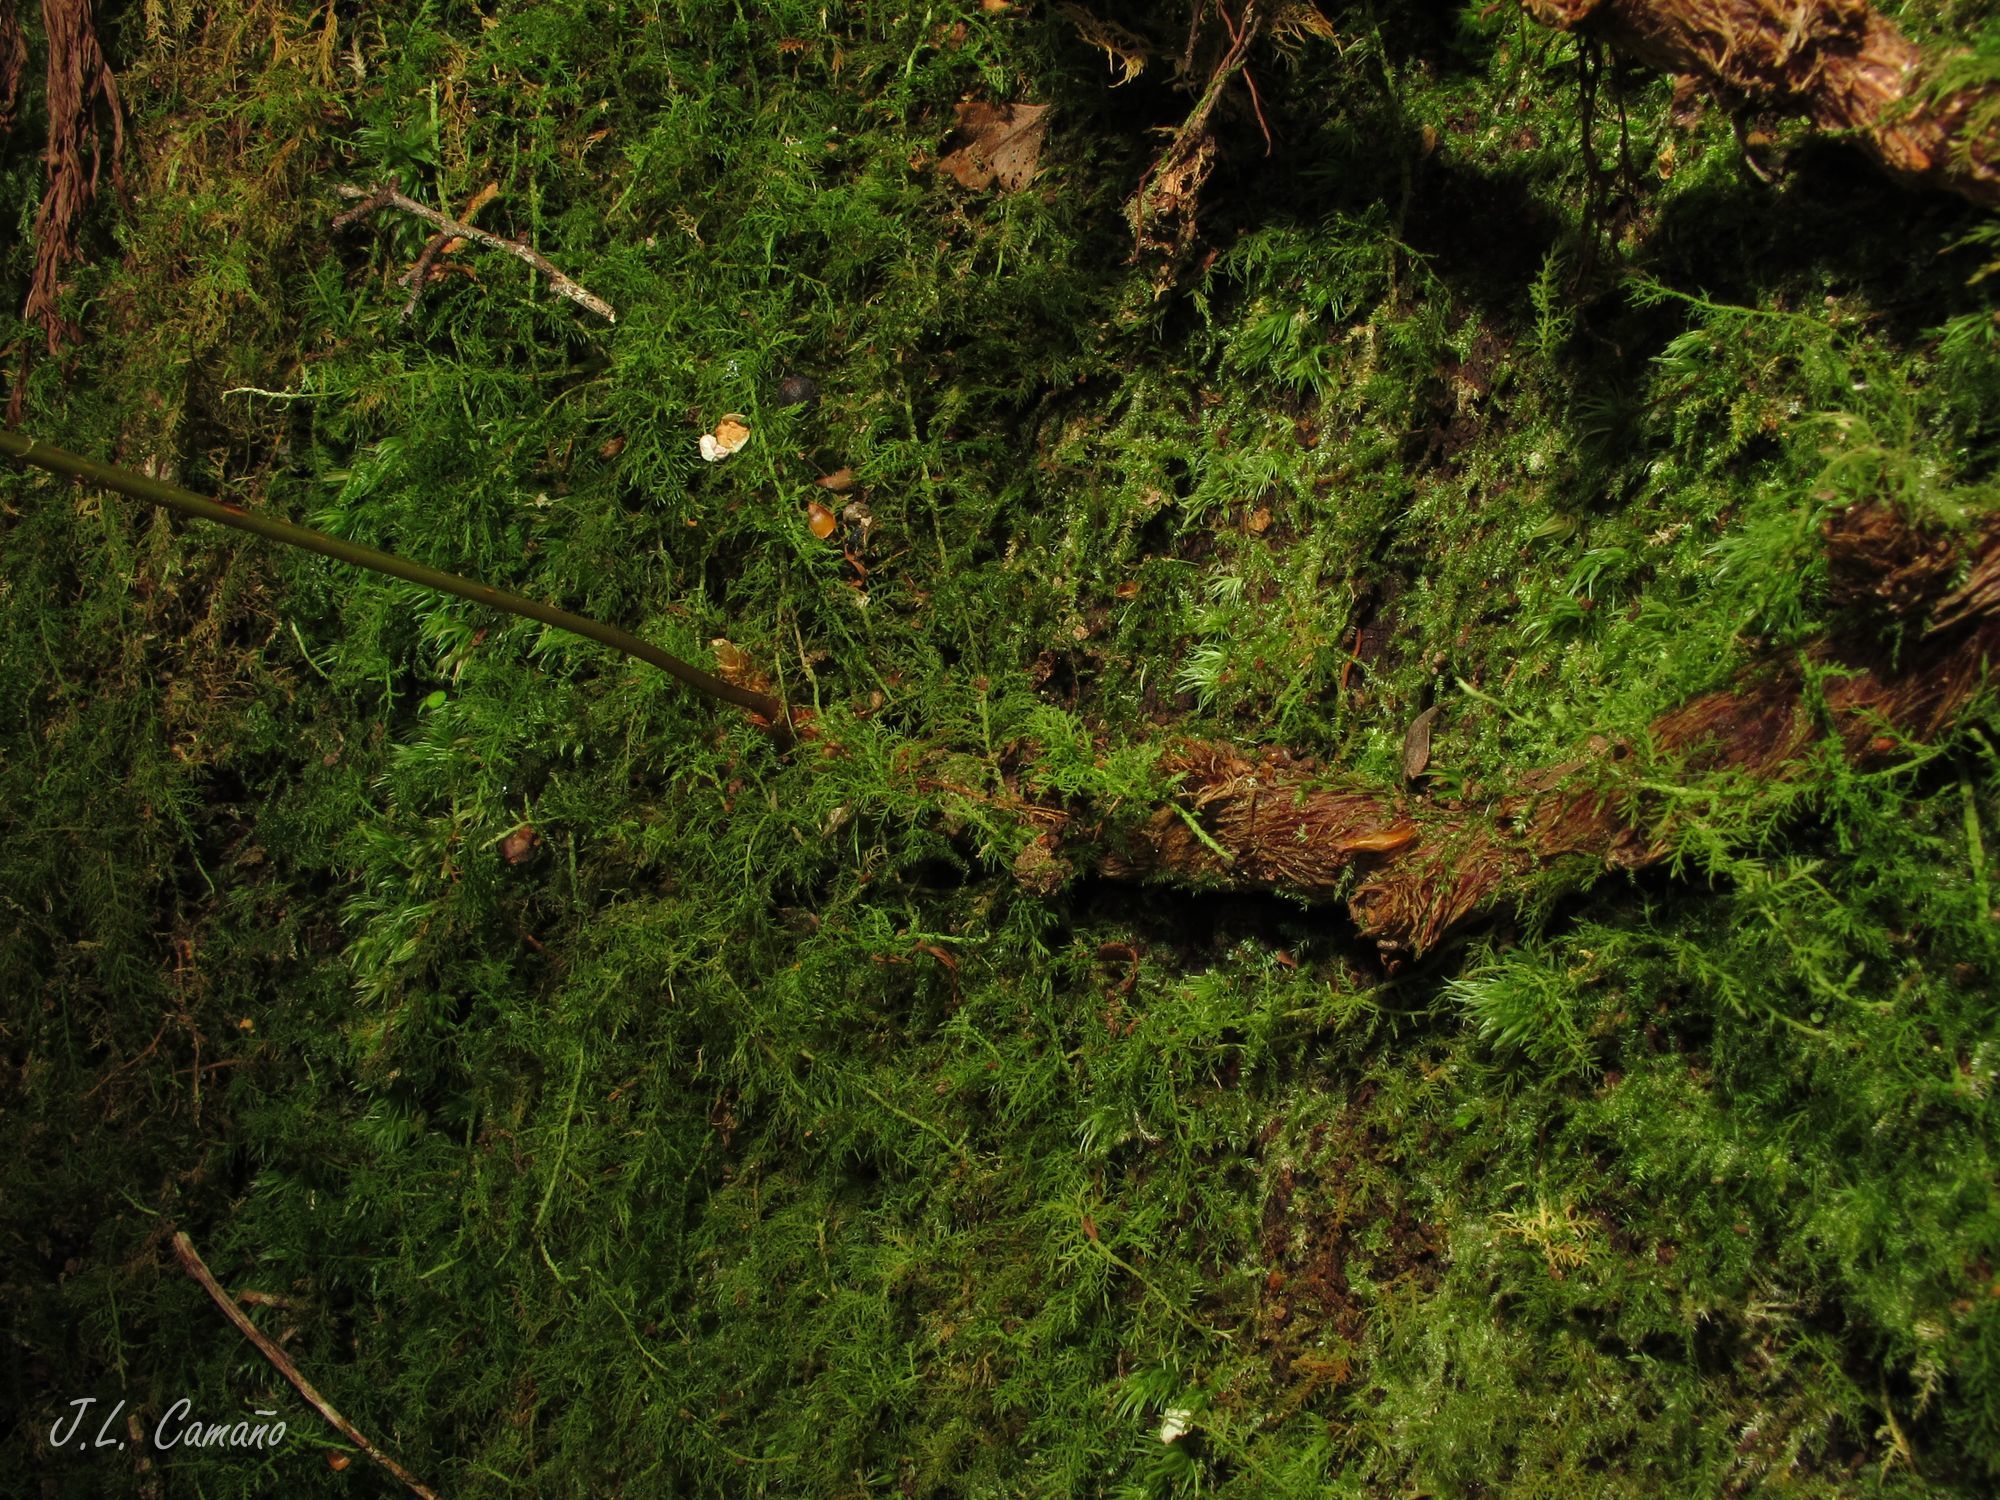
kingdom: Plantae
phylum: Tracheophyta
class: Polypodiopsida
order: Polypodiales
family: Davalliaceae
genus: Davallia
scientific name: Davallia canariensis
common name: Hare's-foot fern
